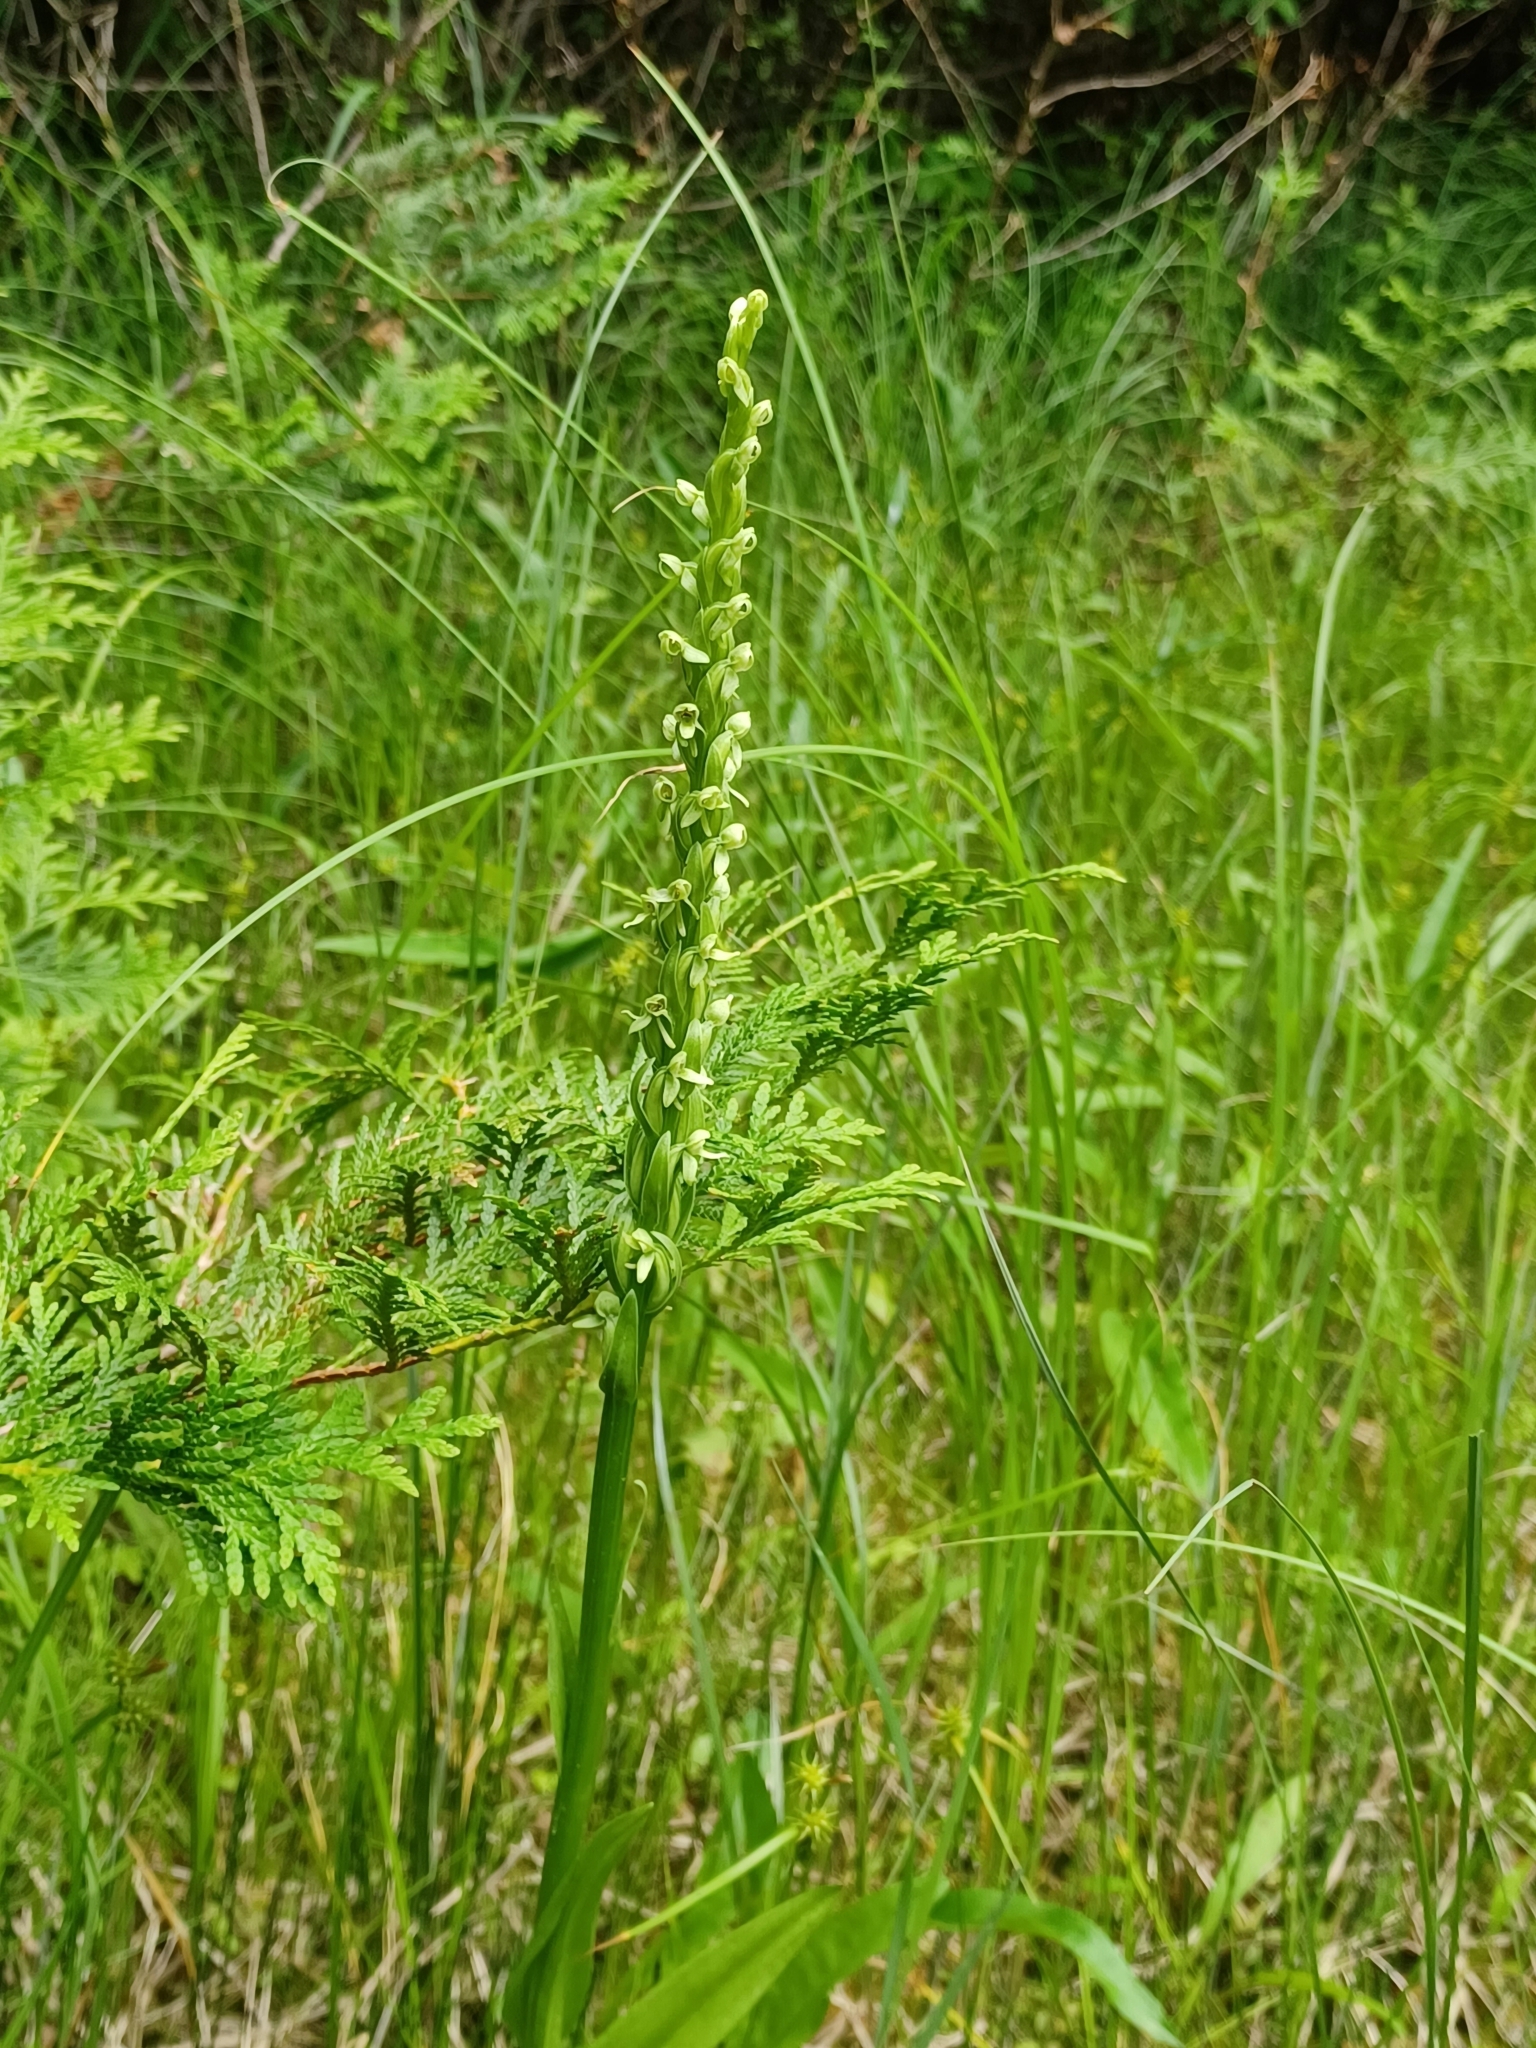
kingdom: Plantae
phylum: Tracheophyta
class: Liliopsida
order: Asparagales
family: Orchidaceae
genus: Platanthera
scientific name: Platanthera huronensis
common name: Fragrant green orchid
